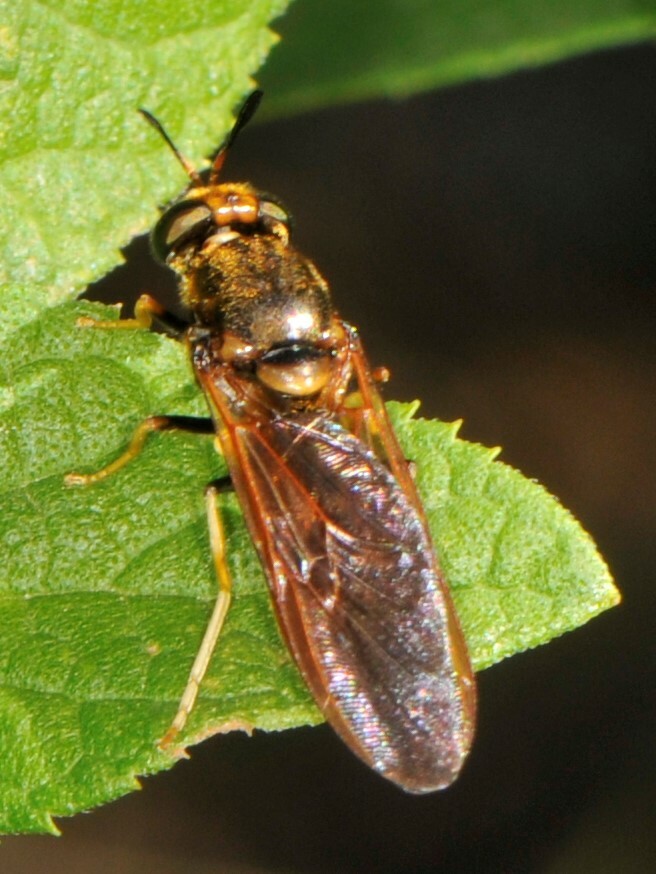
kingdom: Animalia
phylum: Arthropoda
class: Insecta
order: Diptera
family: Stratiomyidae
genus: Hermetia
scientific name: Hermetia concinna
